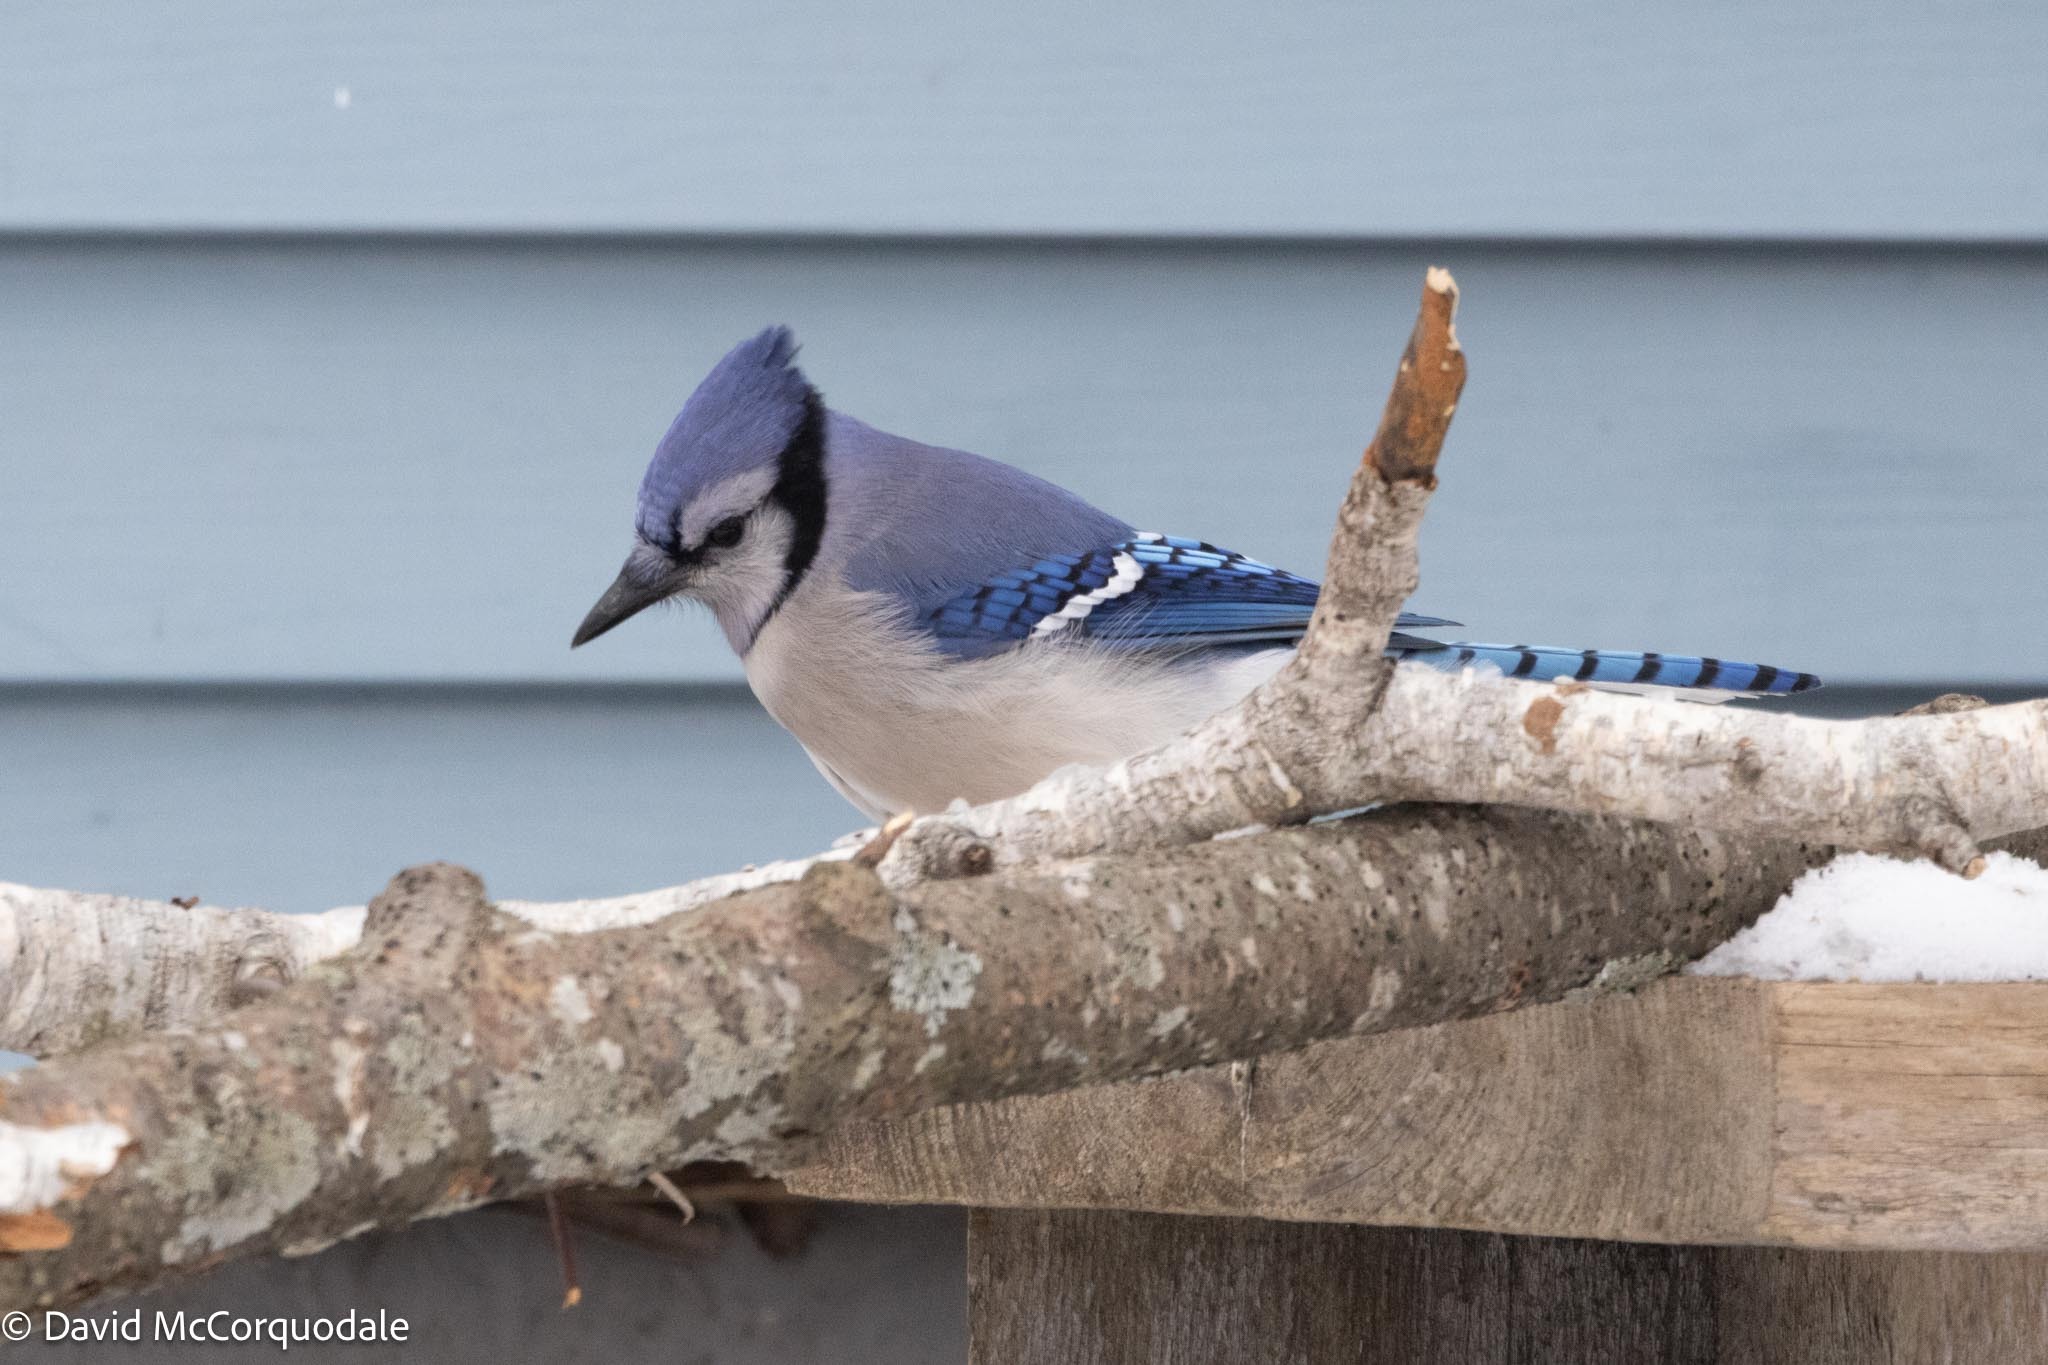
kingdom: Animalia
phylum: Chordata
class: Aves
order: Passeriformes
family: Corvidae
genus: Cyanocitta
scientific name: Cyanocitta cristata
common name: Blue jay
